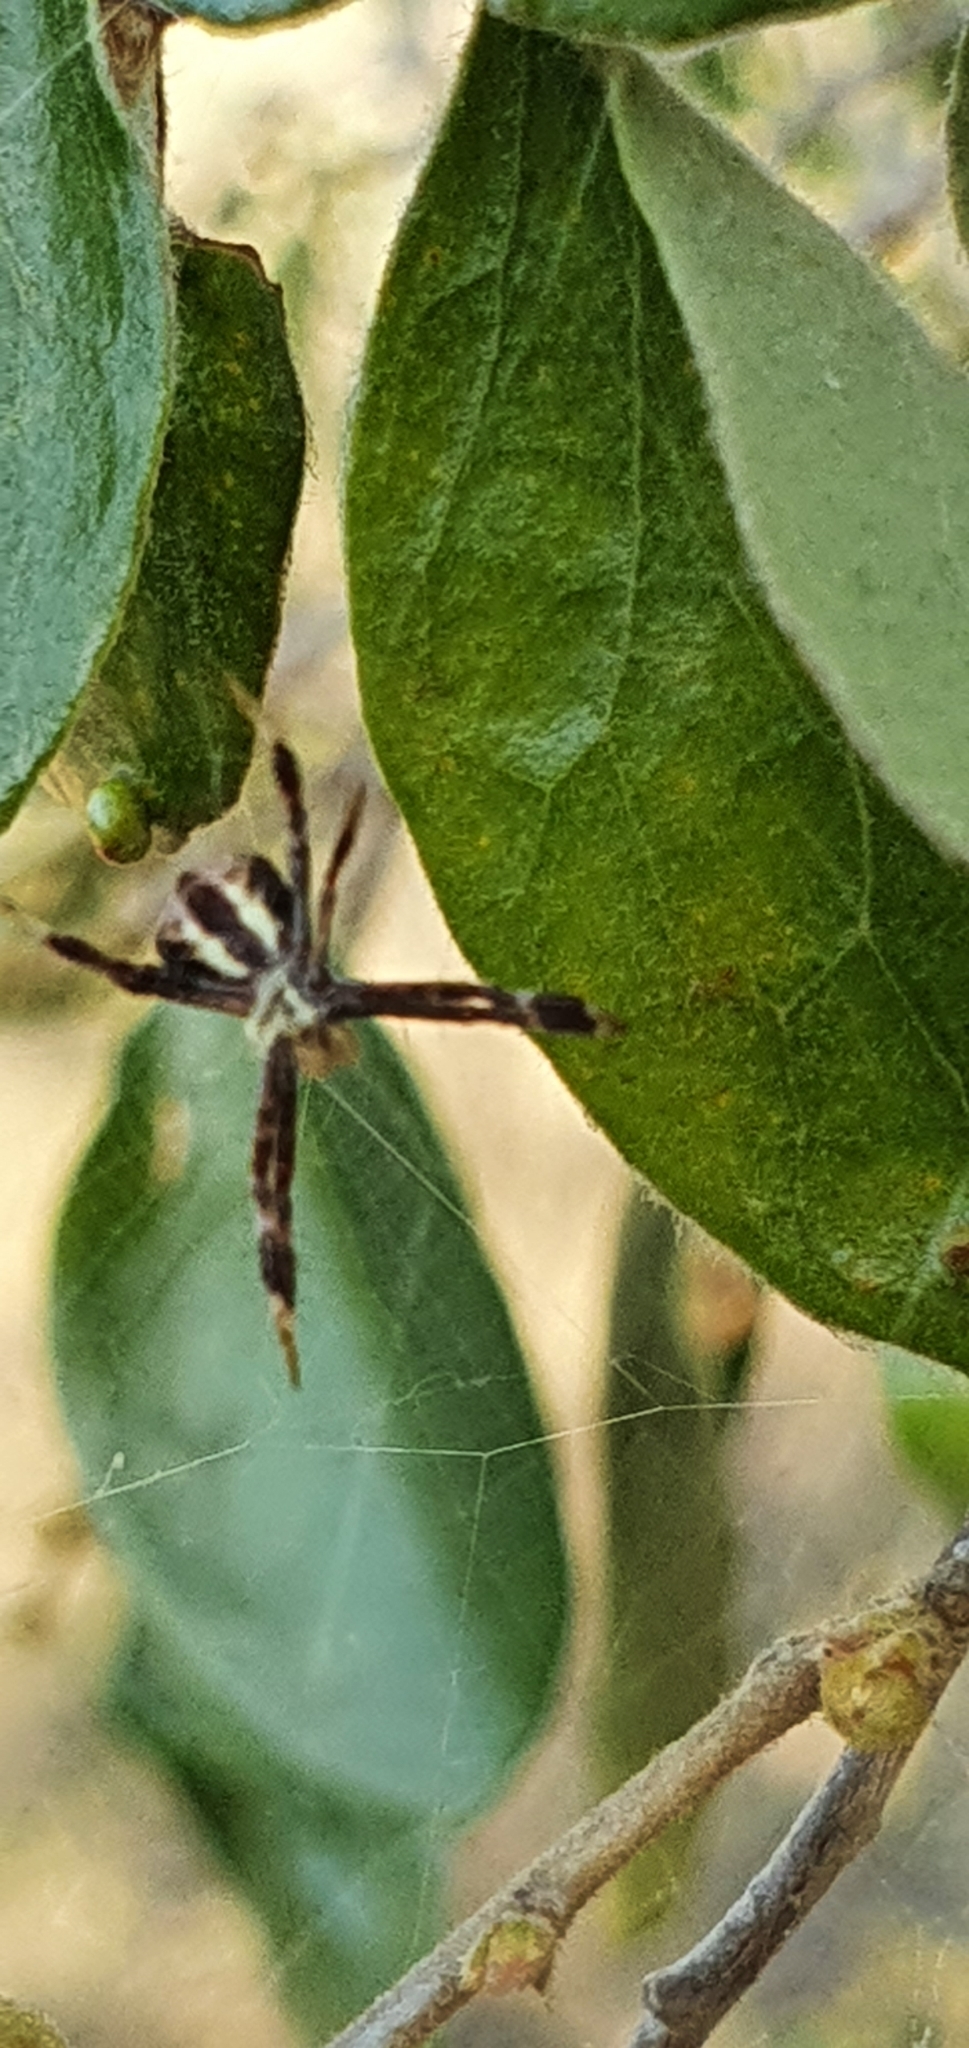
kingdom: Animalia
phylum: Arthropoda
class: Arachnida
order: Araneae
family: Araneidae
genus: Gea
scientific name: Gea theridioides
